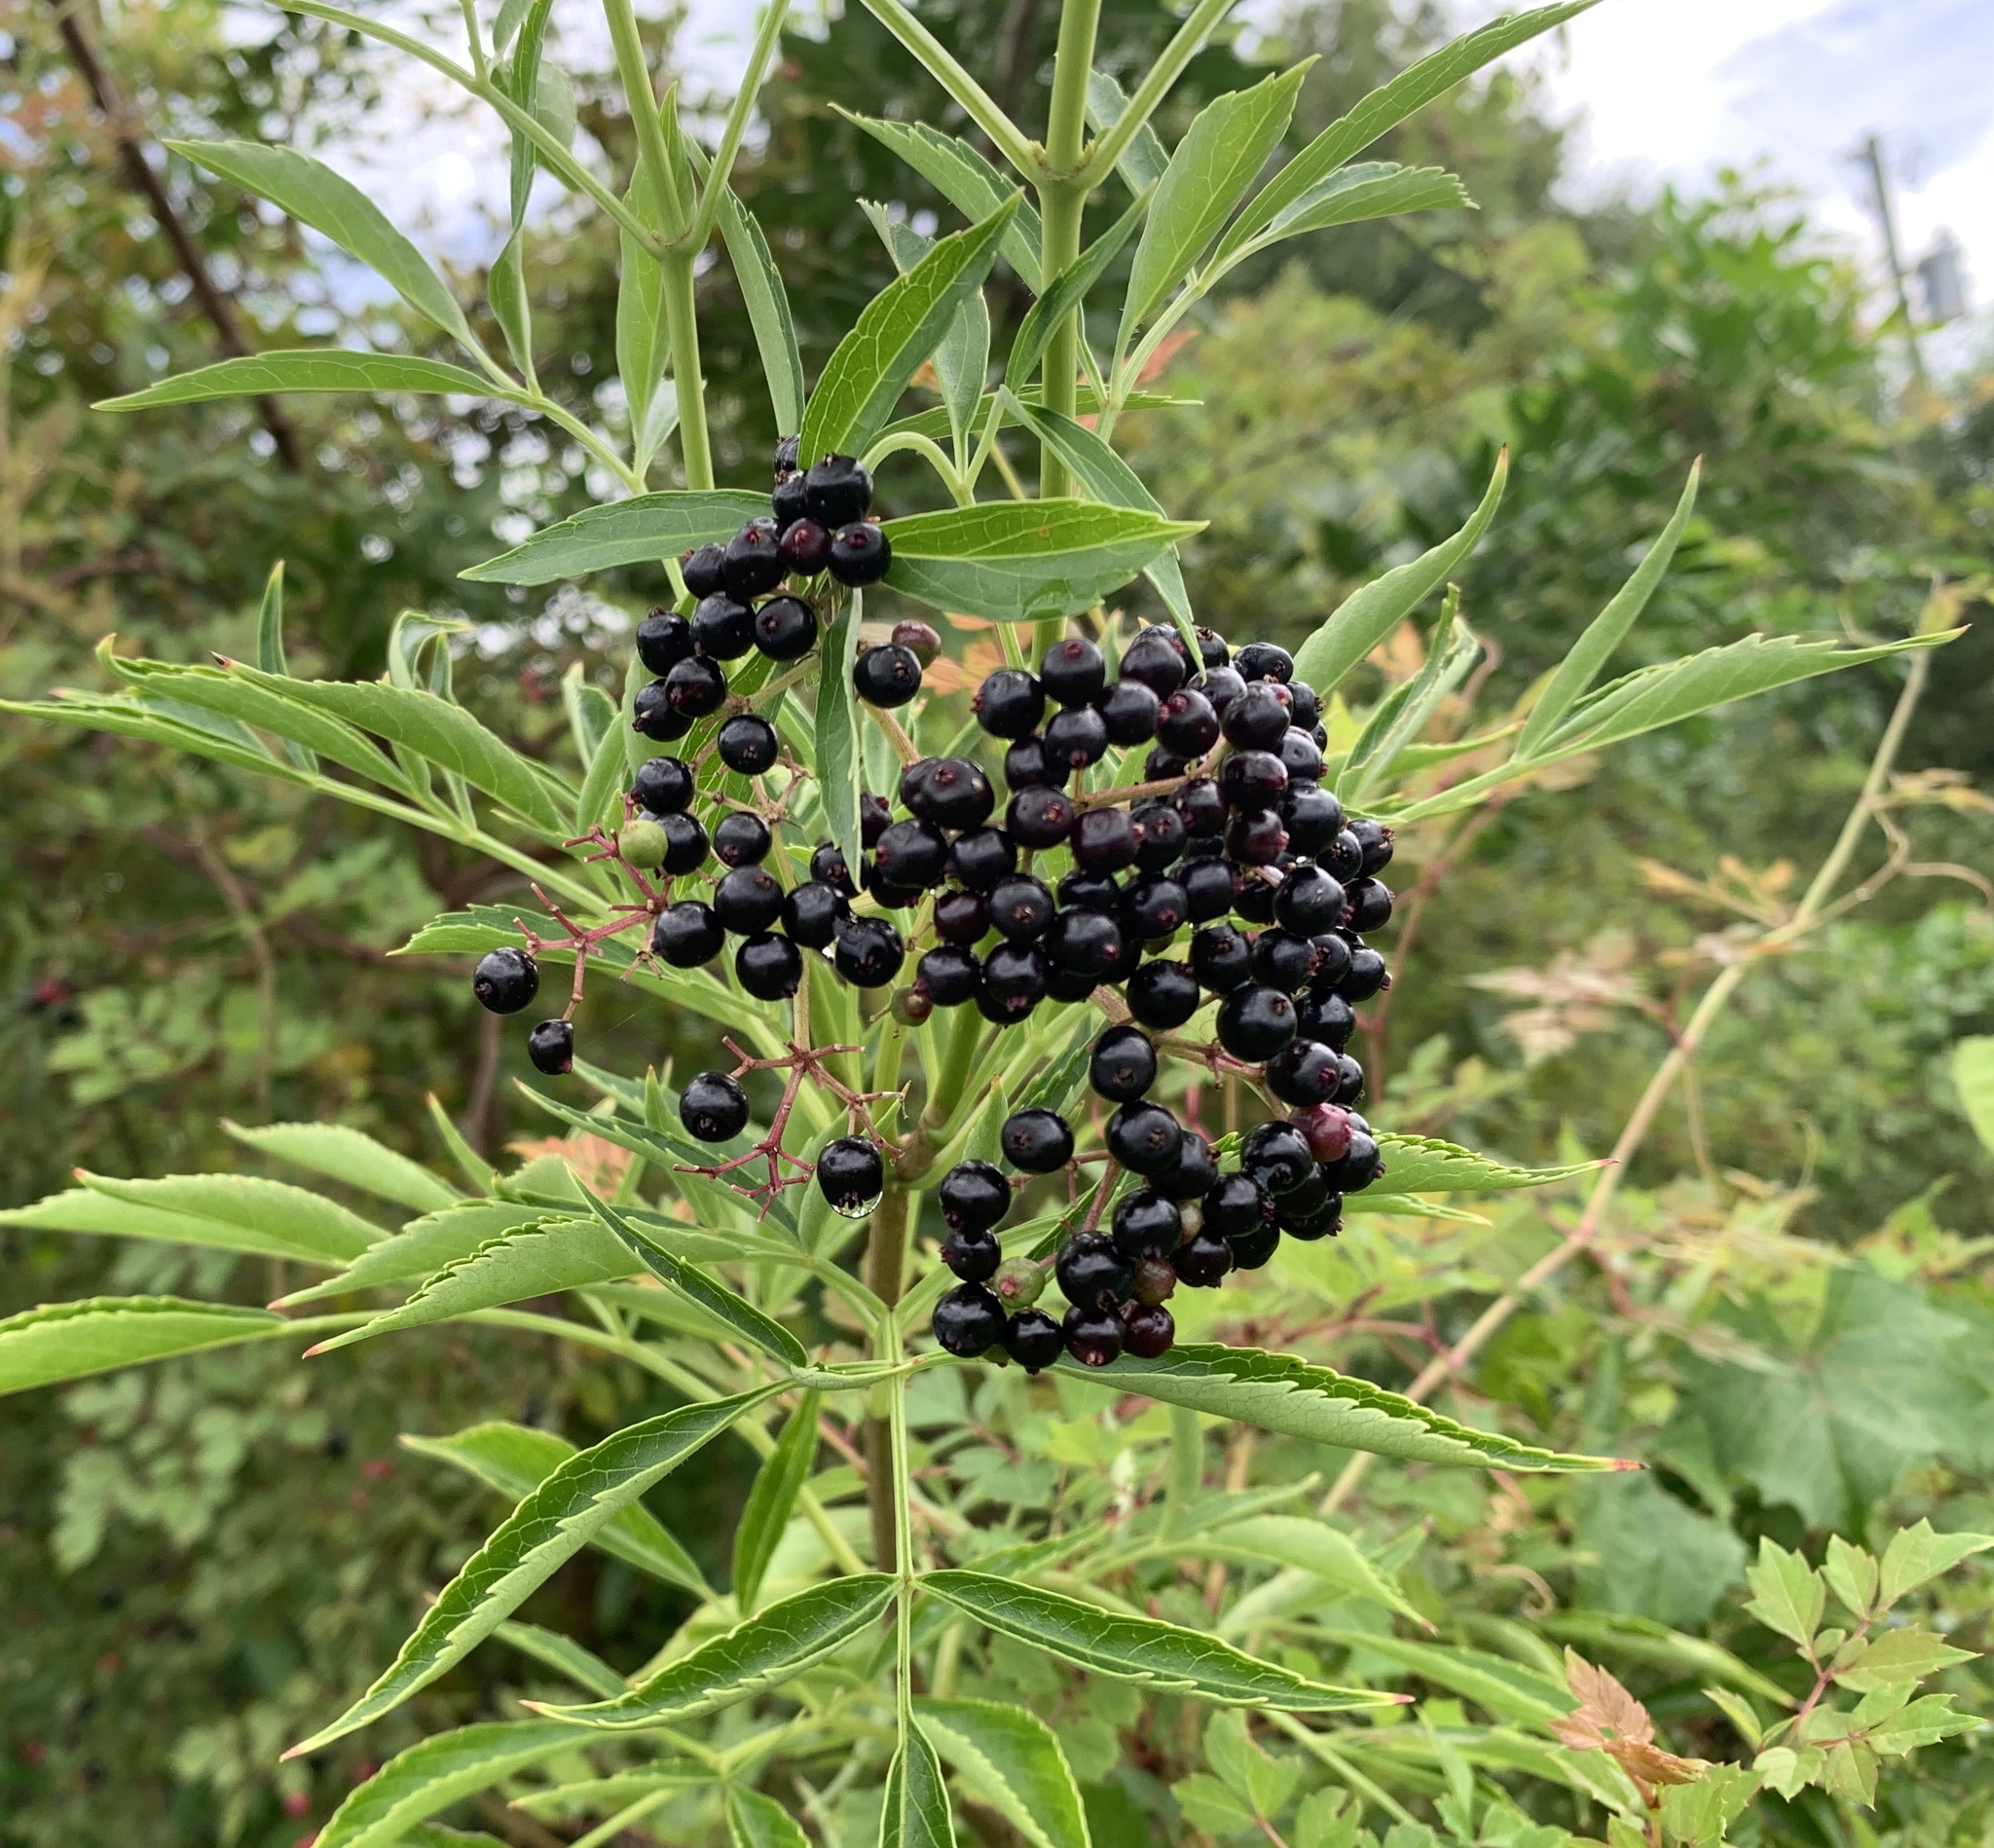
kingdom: Plantae
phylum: Tracheophyta
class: Magnoliopsida
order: Dipsacales
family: Viburnaceae
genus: Sambucus
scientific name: Sambucus canadensis
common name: American elder
